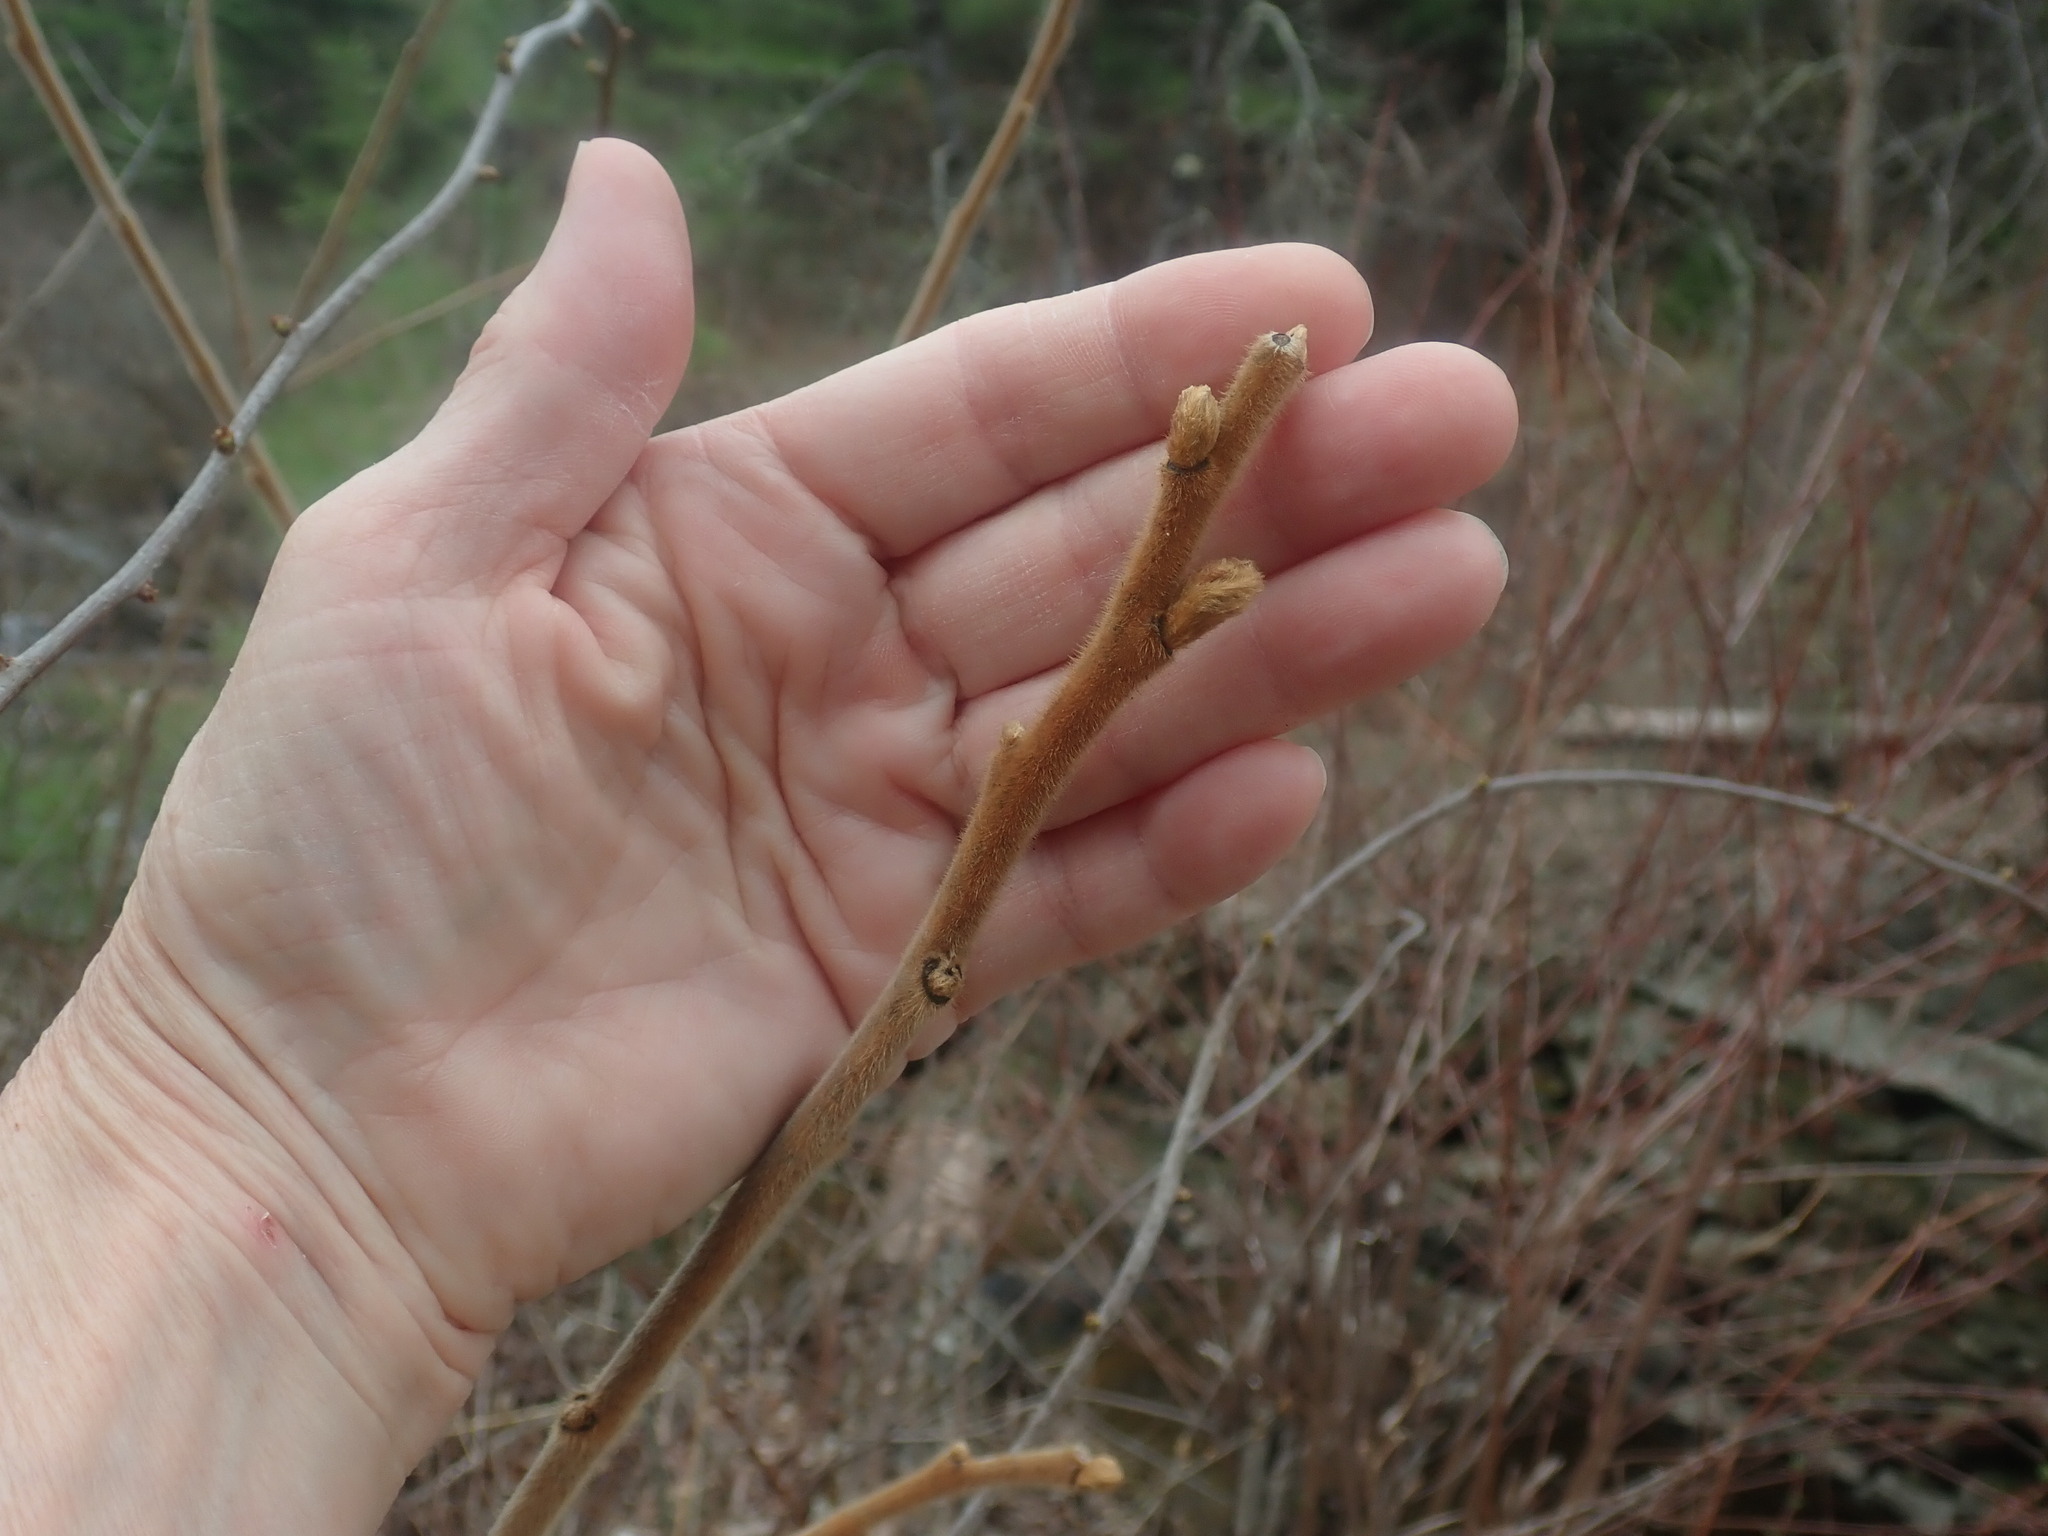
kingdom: Plantae
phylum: Tracheophyta
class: Magnoliopsida
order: Sapindales
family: Anacardiaceae
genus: Rhus
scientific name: Rhus typhina
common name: Staghorn sumac
